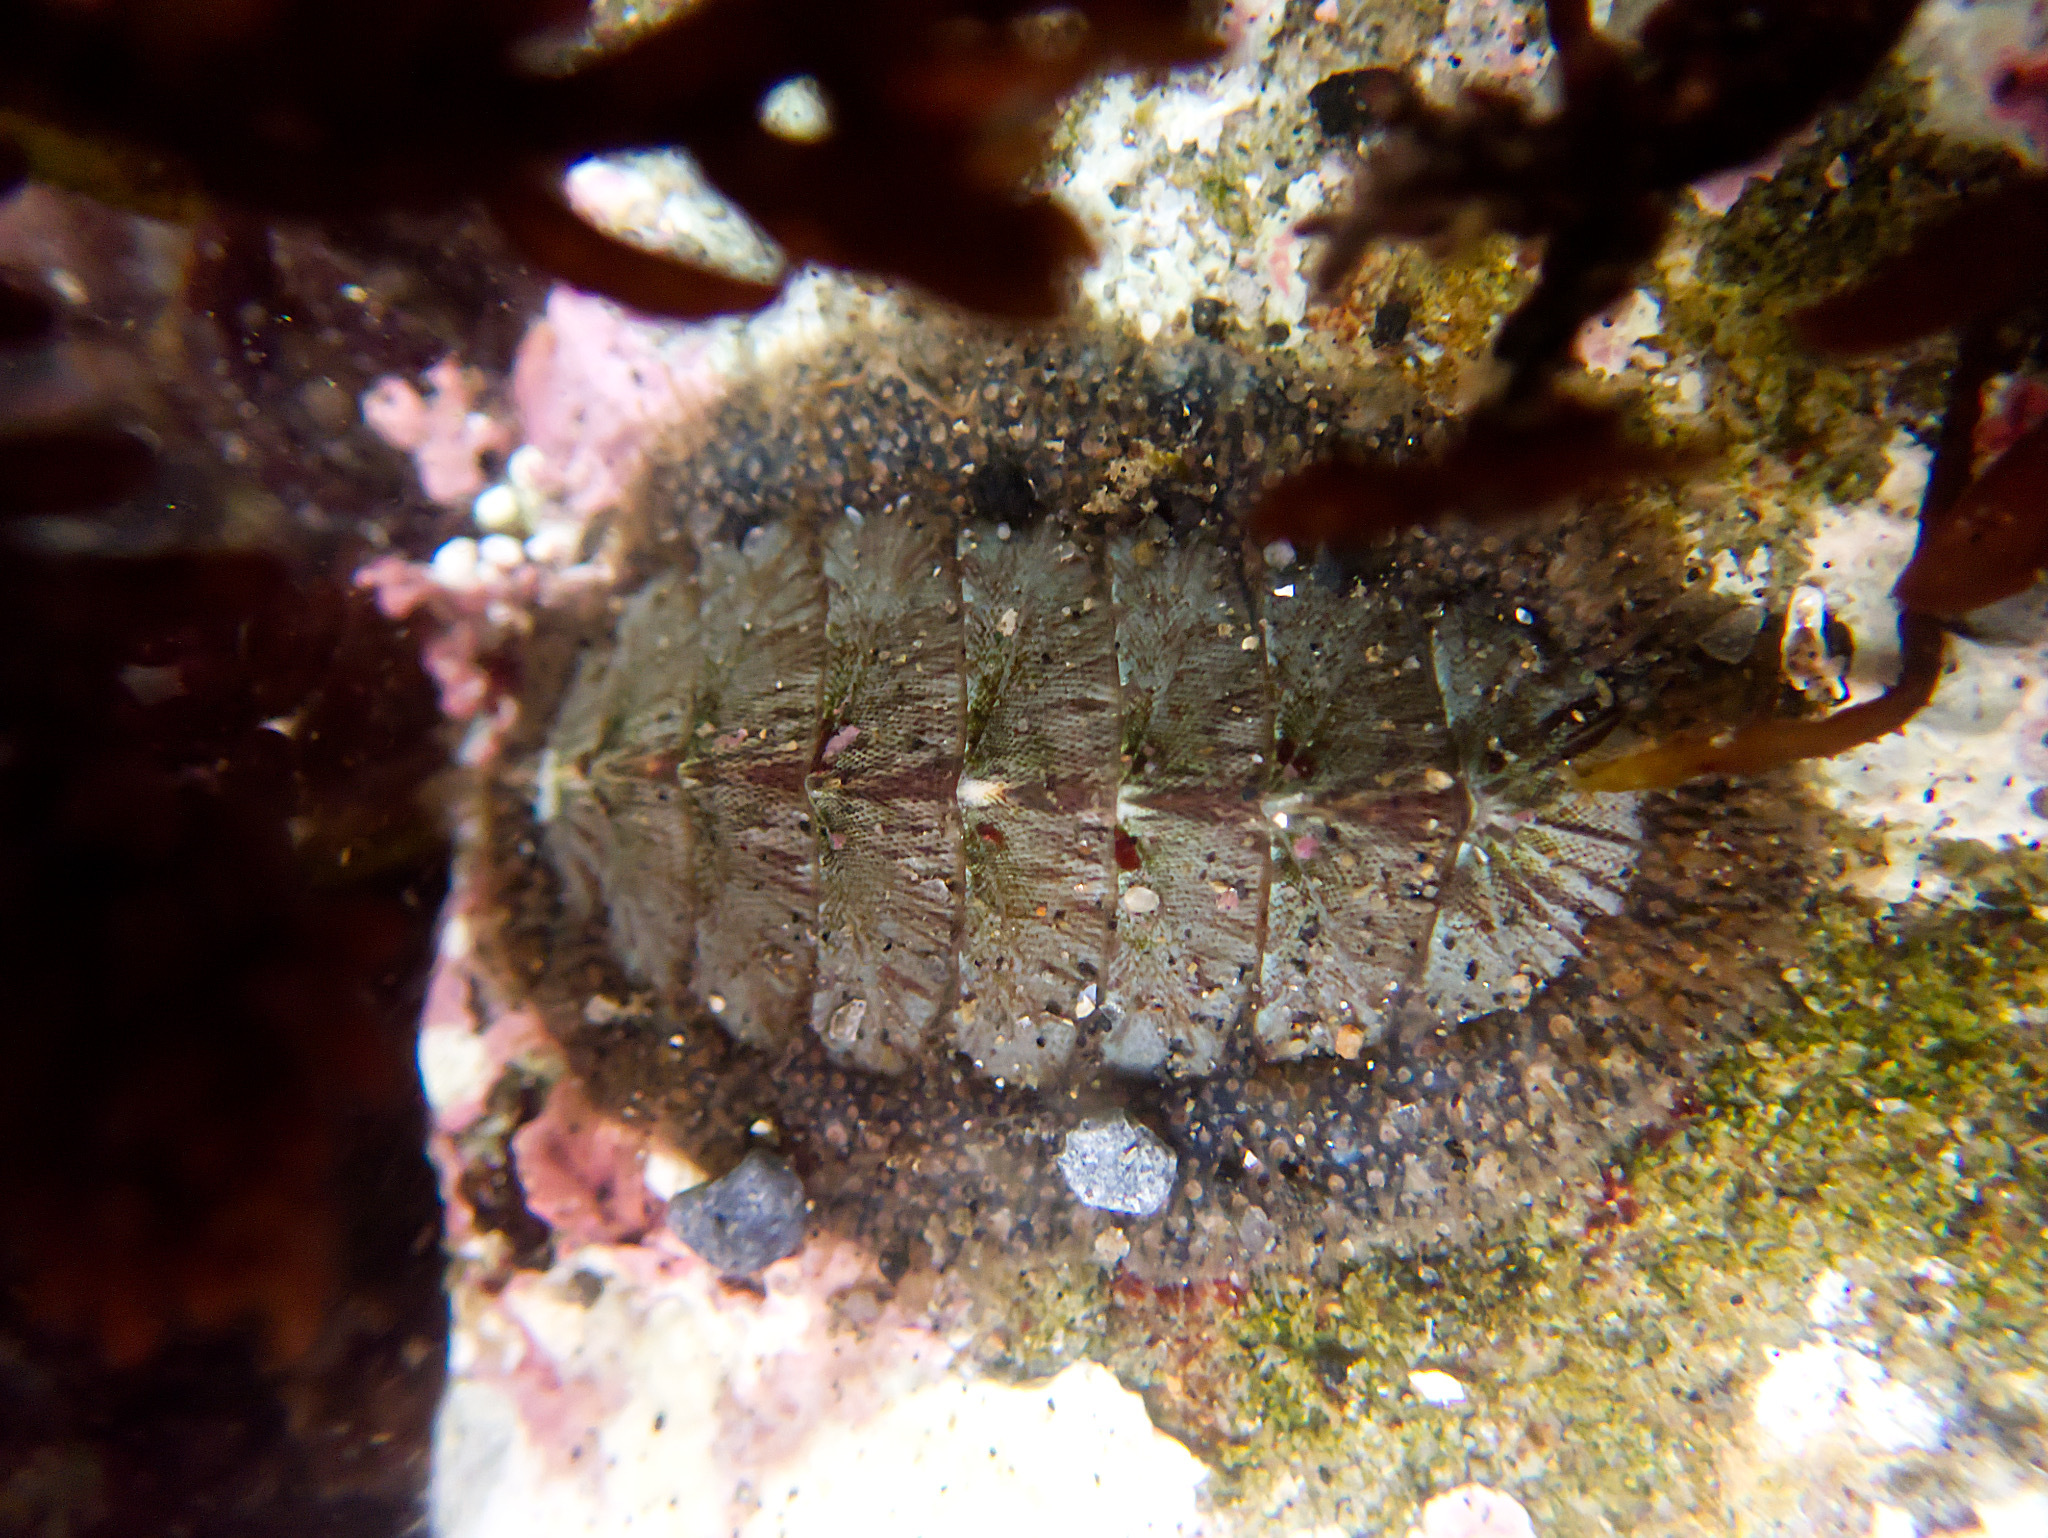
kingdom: Animalia
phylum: Mollusca
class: Polyplacophora
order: Chitonida
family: Mopaliidae
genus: Mopalia
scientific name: Mopalia lignosa
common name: Woody chiton
